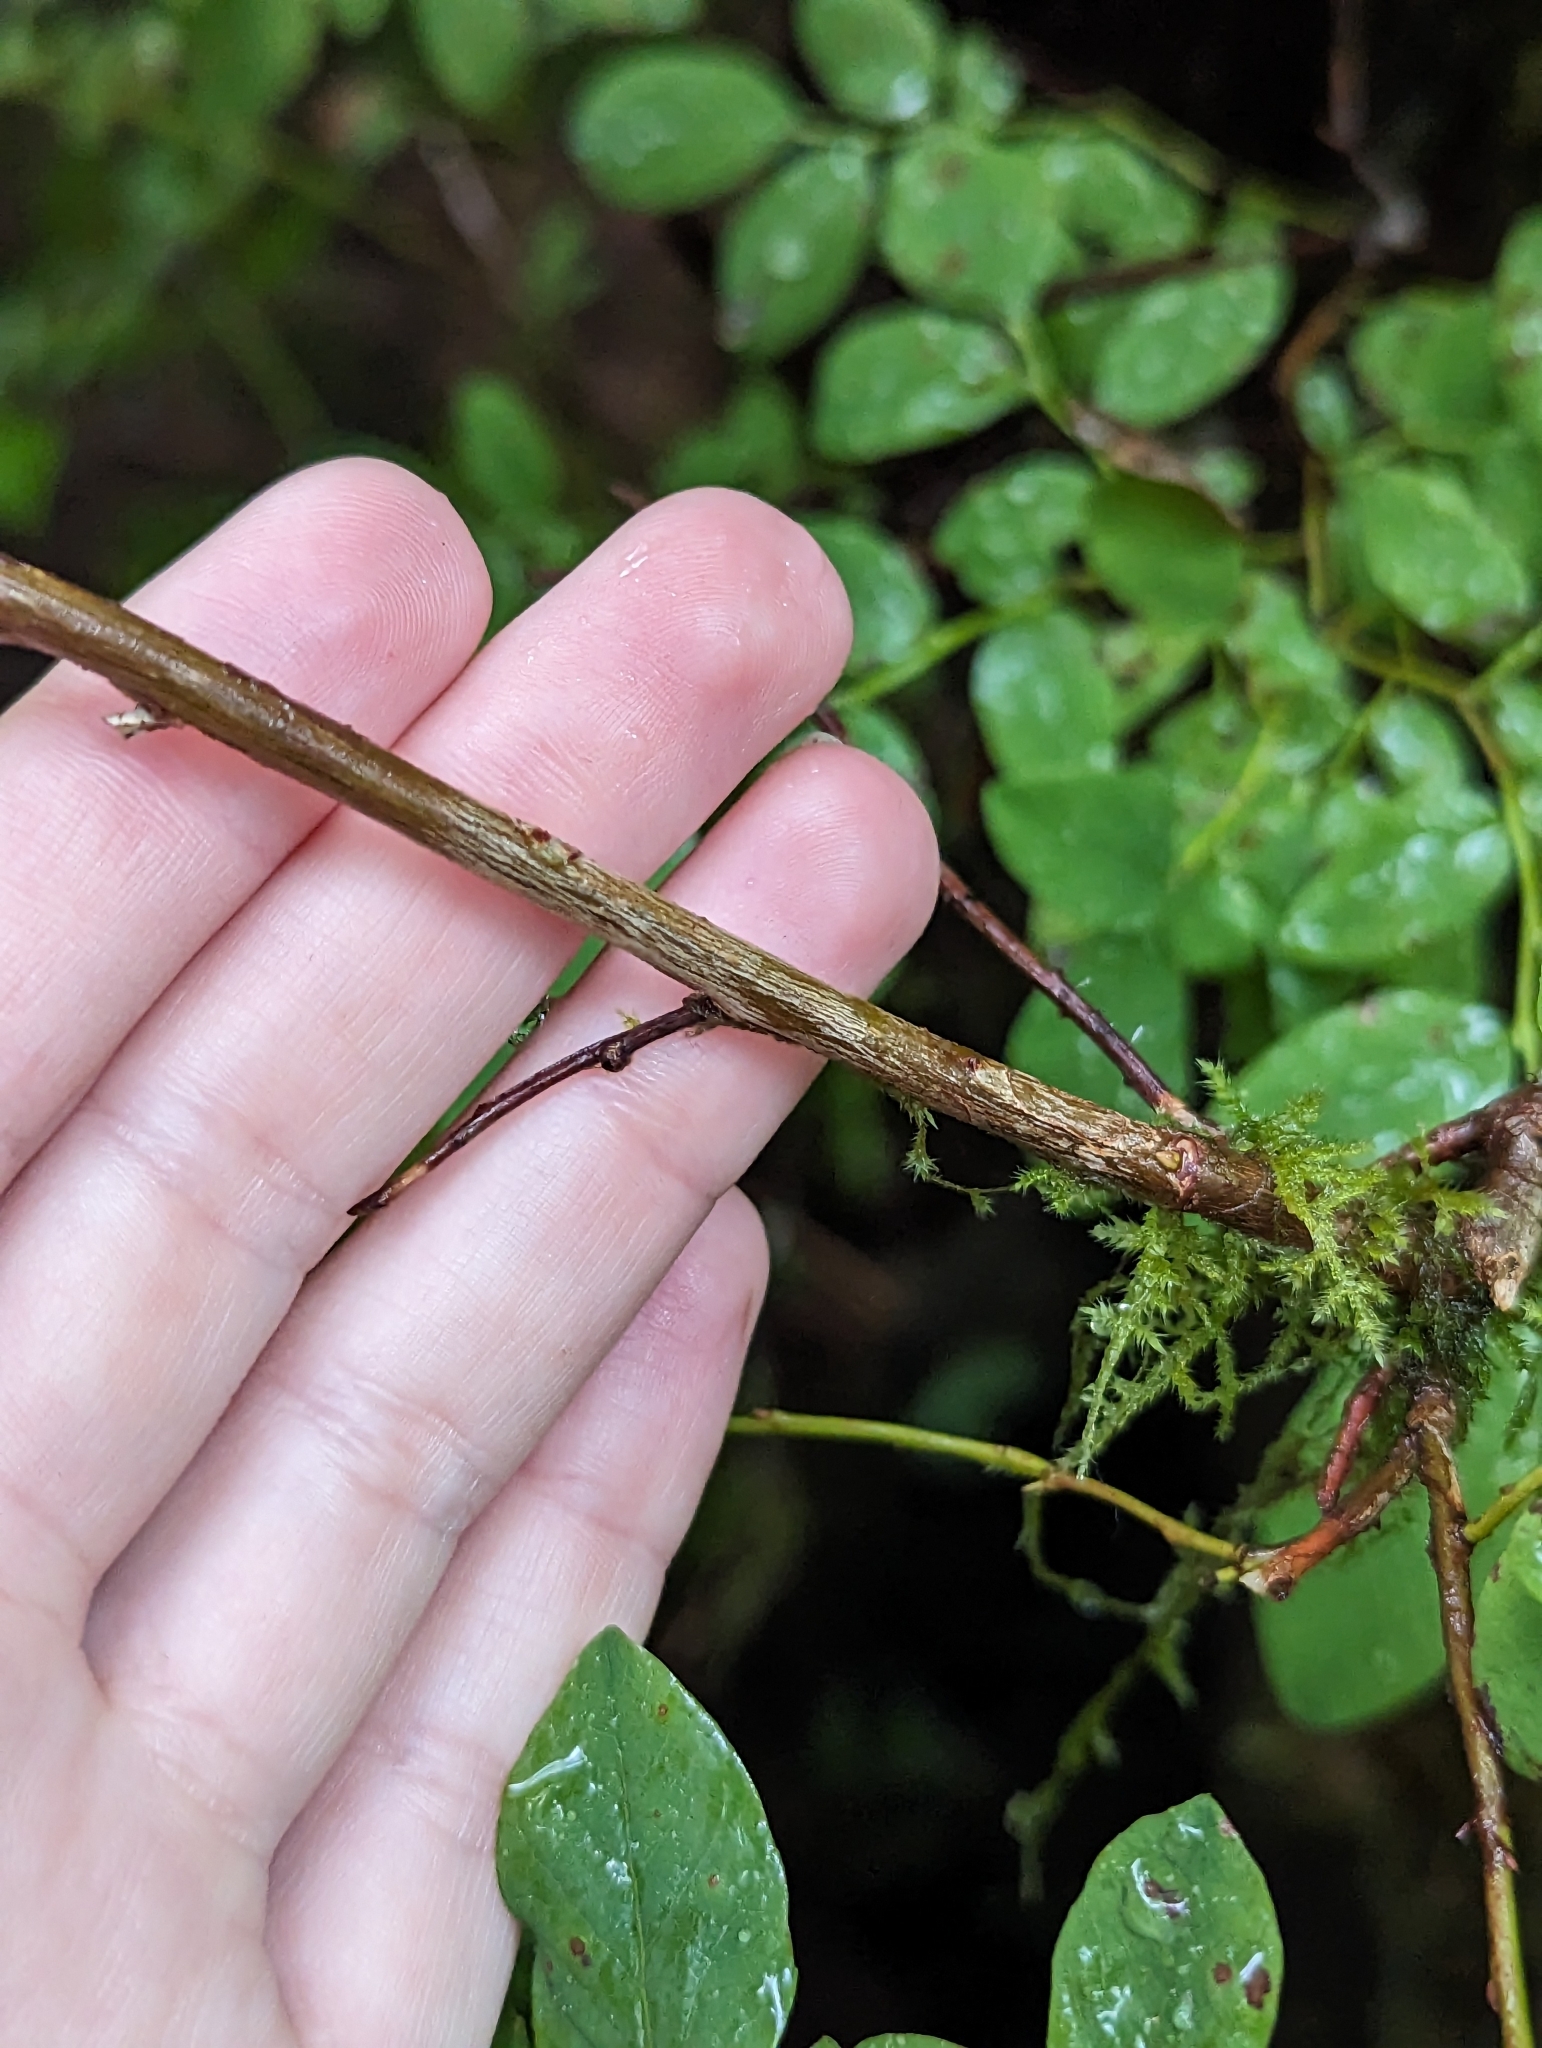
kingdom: Plantae
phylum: Tracheophyta
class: Magnoliopsida
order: Ericales
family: Ericaceae
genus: Vaccinium
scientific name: Vaccinium ovalifolium
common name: Early blueberry
